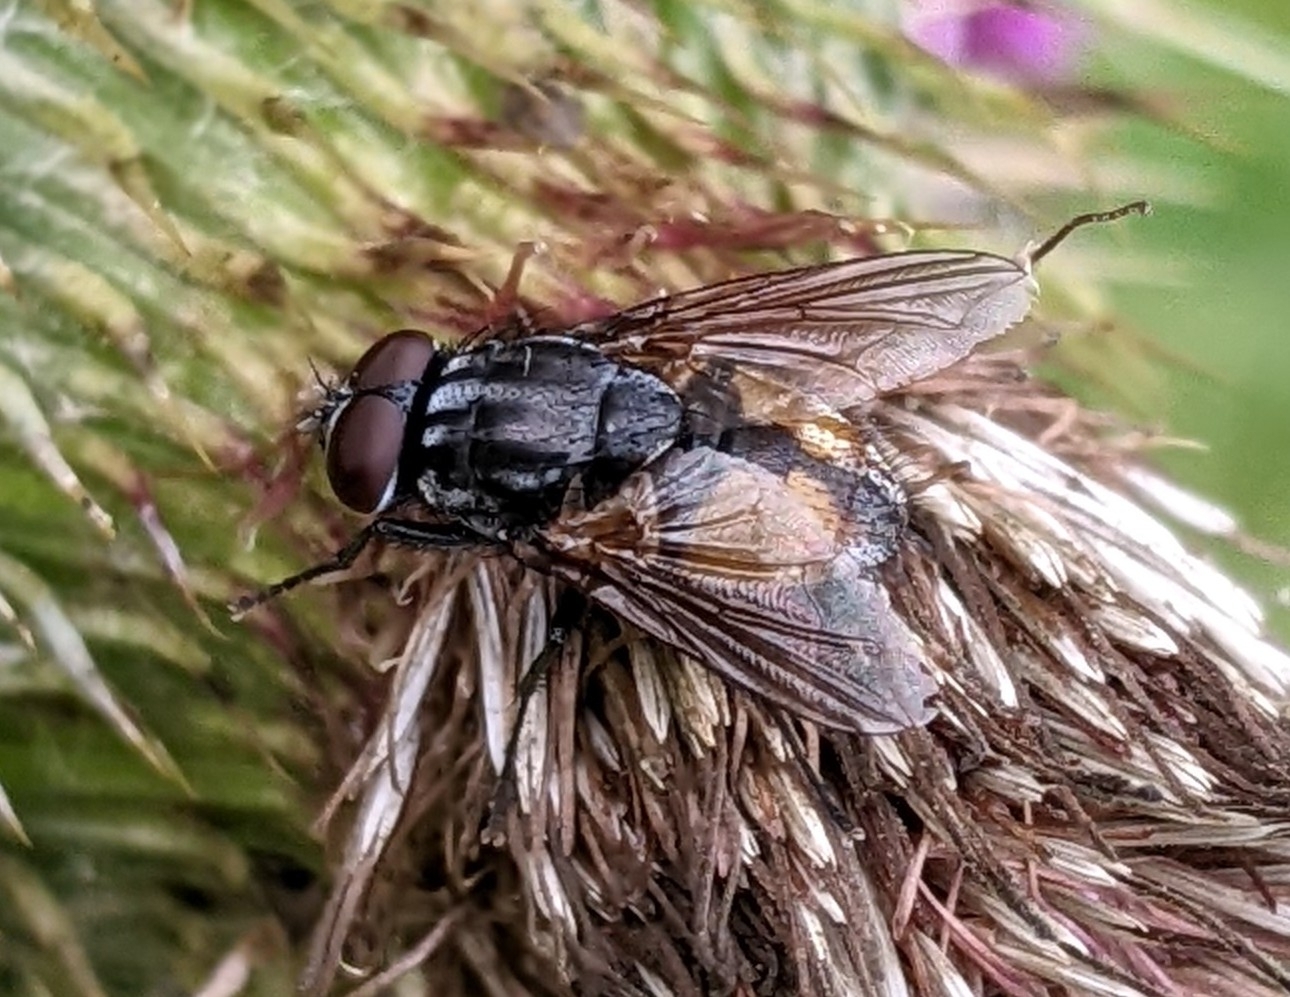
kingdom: Animalia
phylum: Arthropoda
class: Insecta
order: Diptera
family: Muscidae
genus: Musca
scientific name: Musca autumnalis
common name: Face fly
